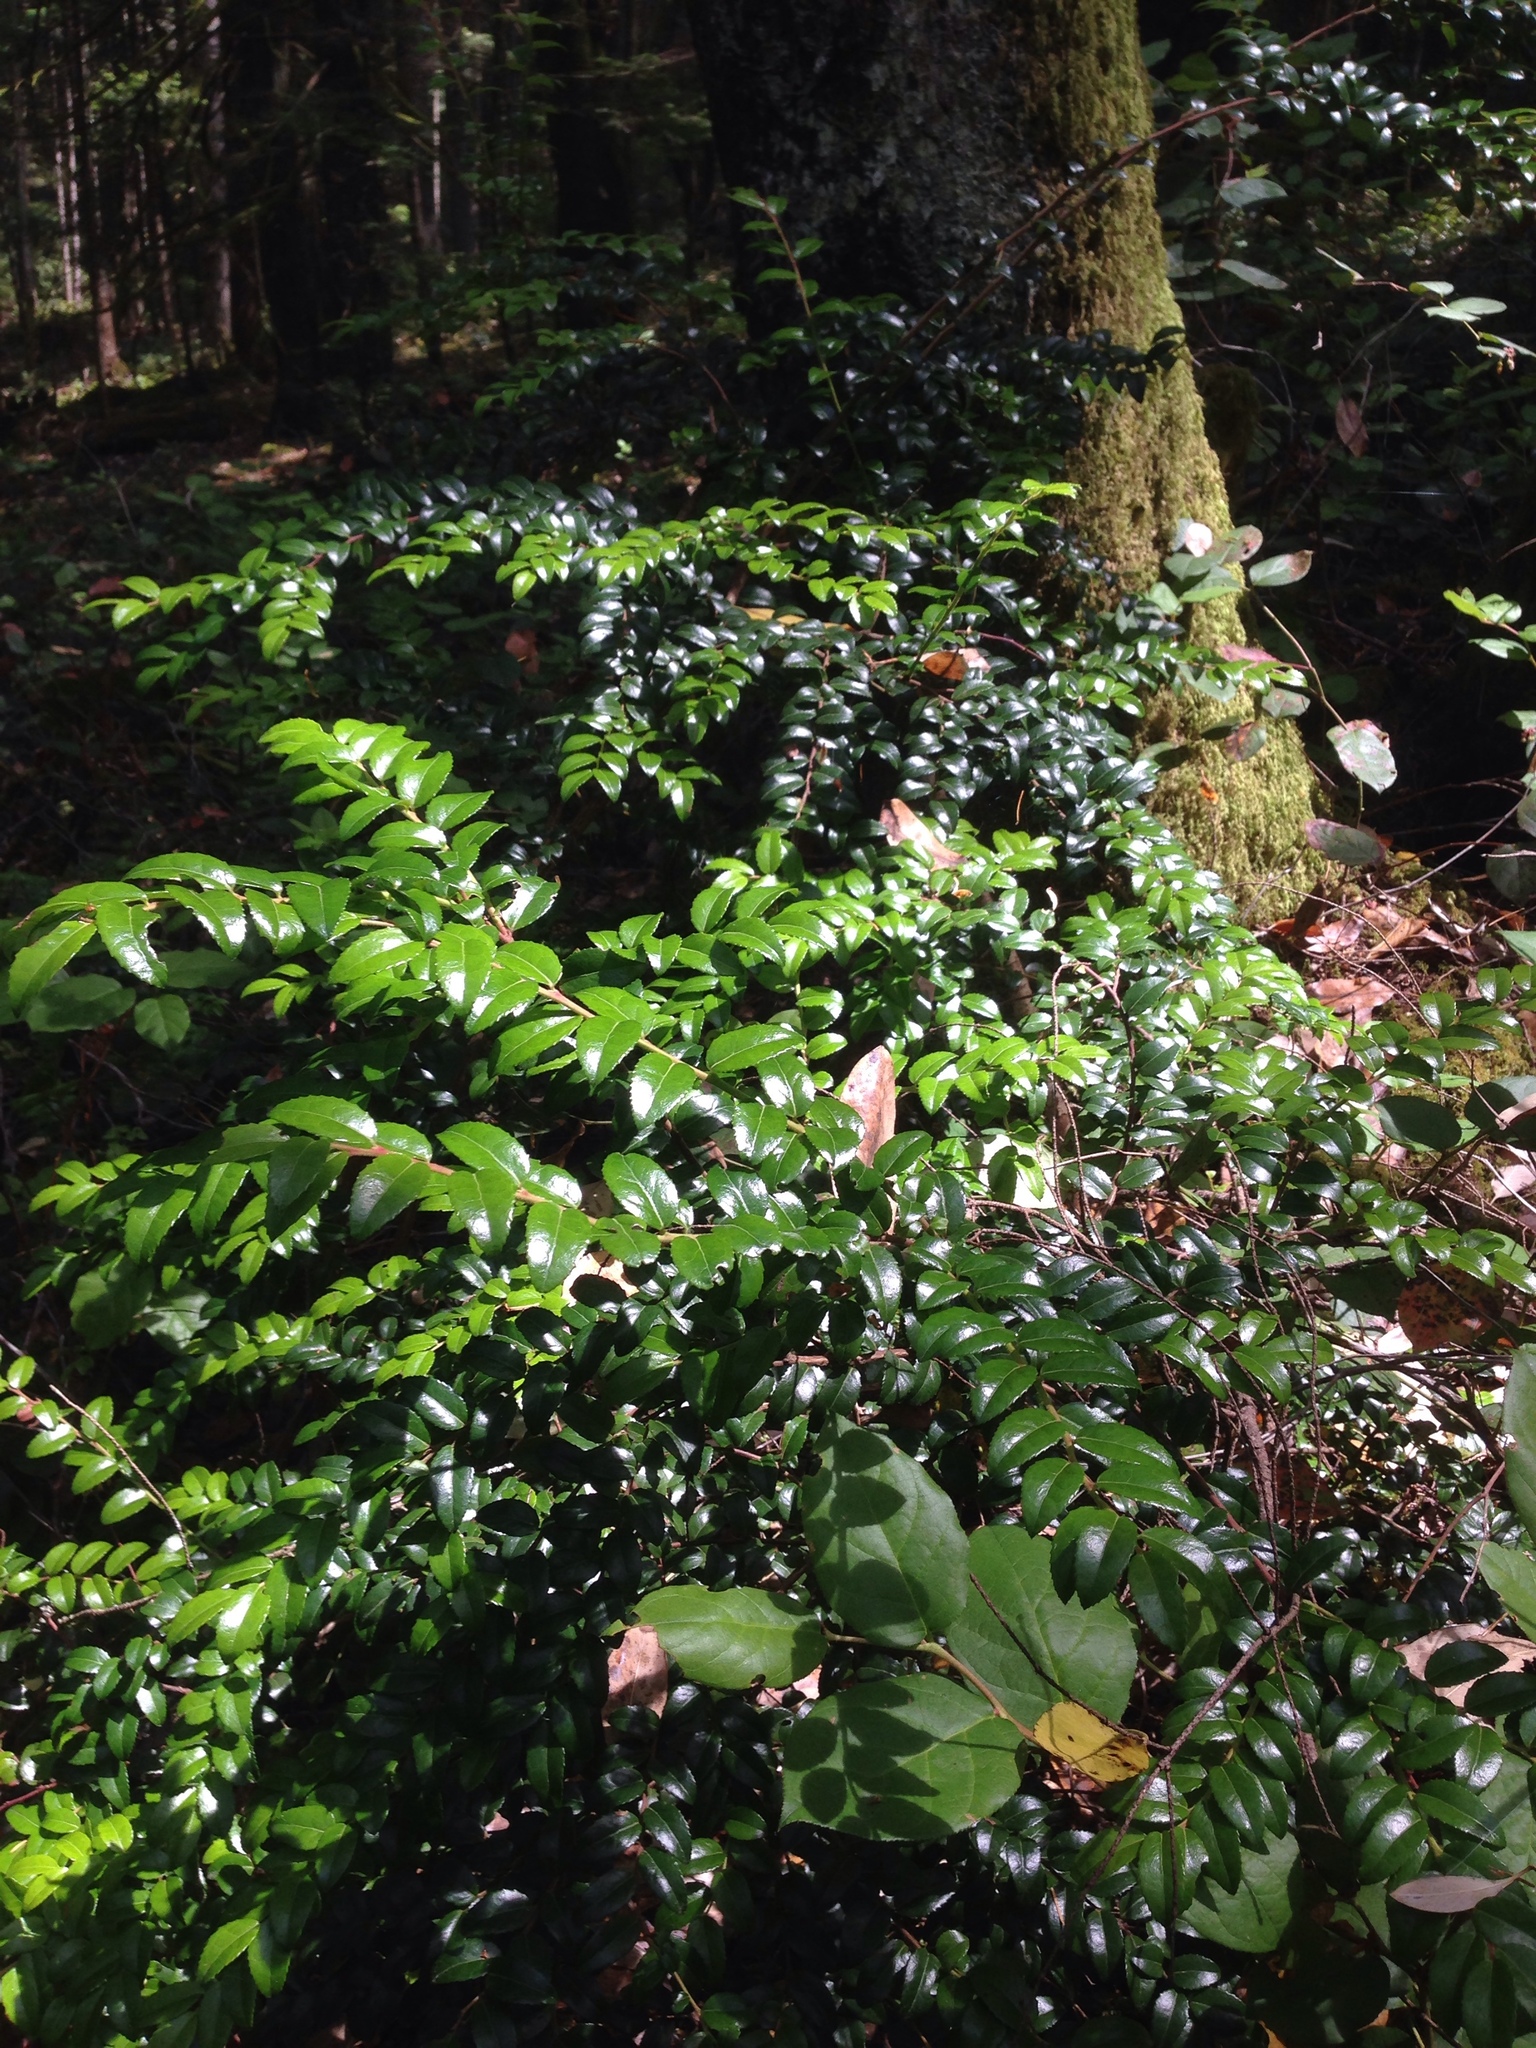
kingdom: Plantae
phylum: Tracheophyta
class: Magnoliopsida
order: Ericales
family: Ericaceae
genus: Vaccinium
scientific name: Vaccinium ovatum
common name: California-huckleberry
